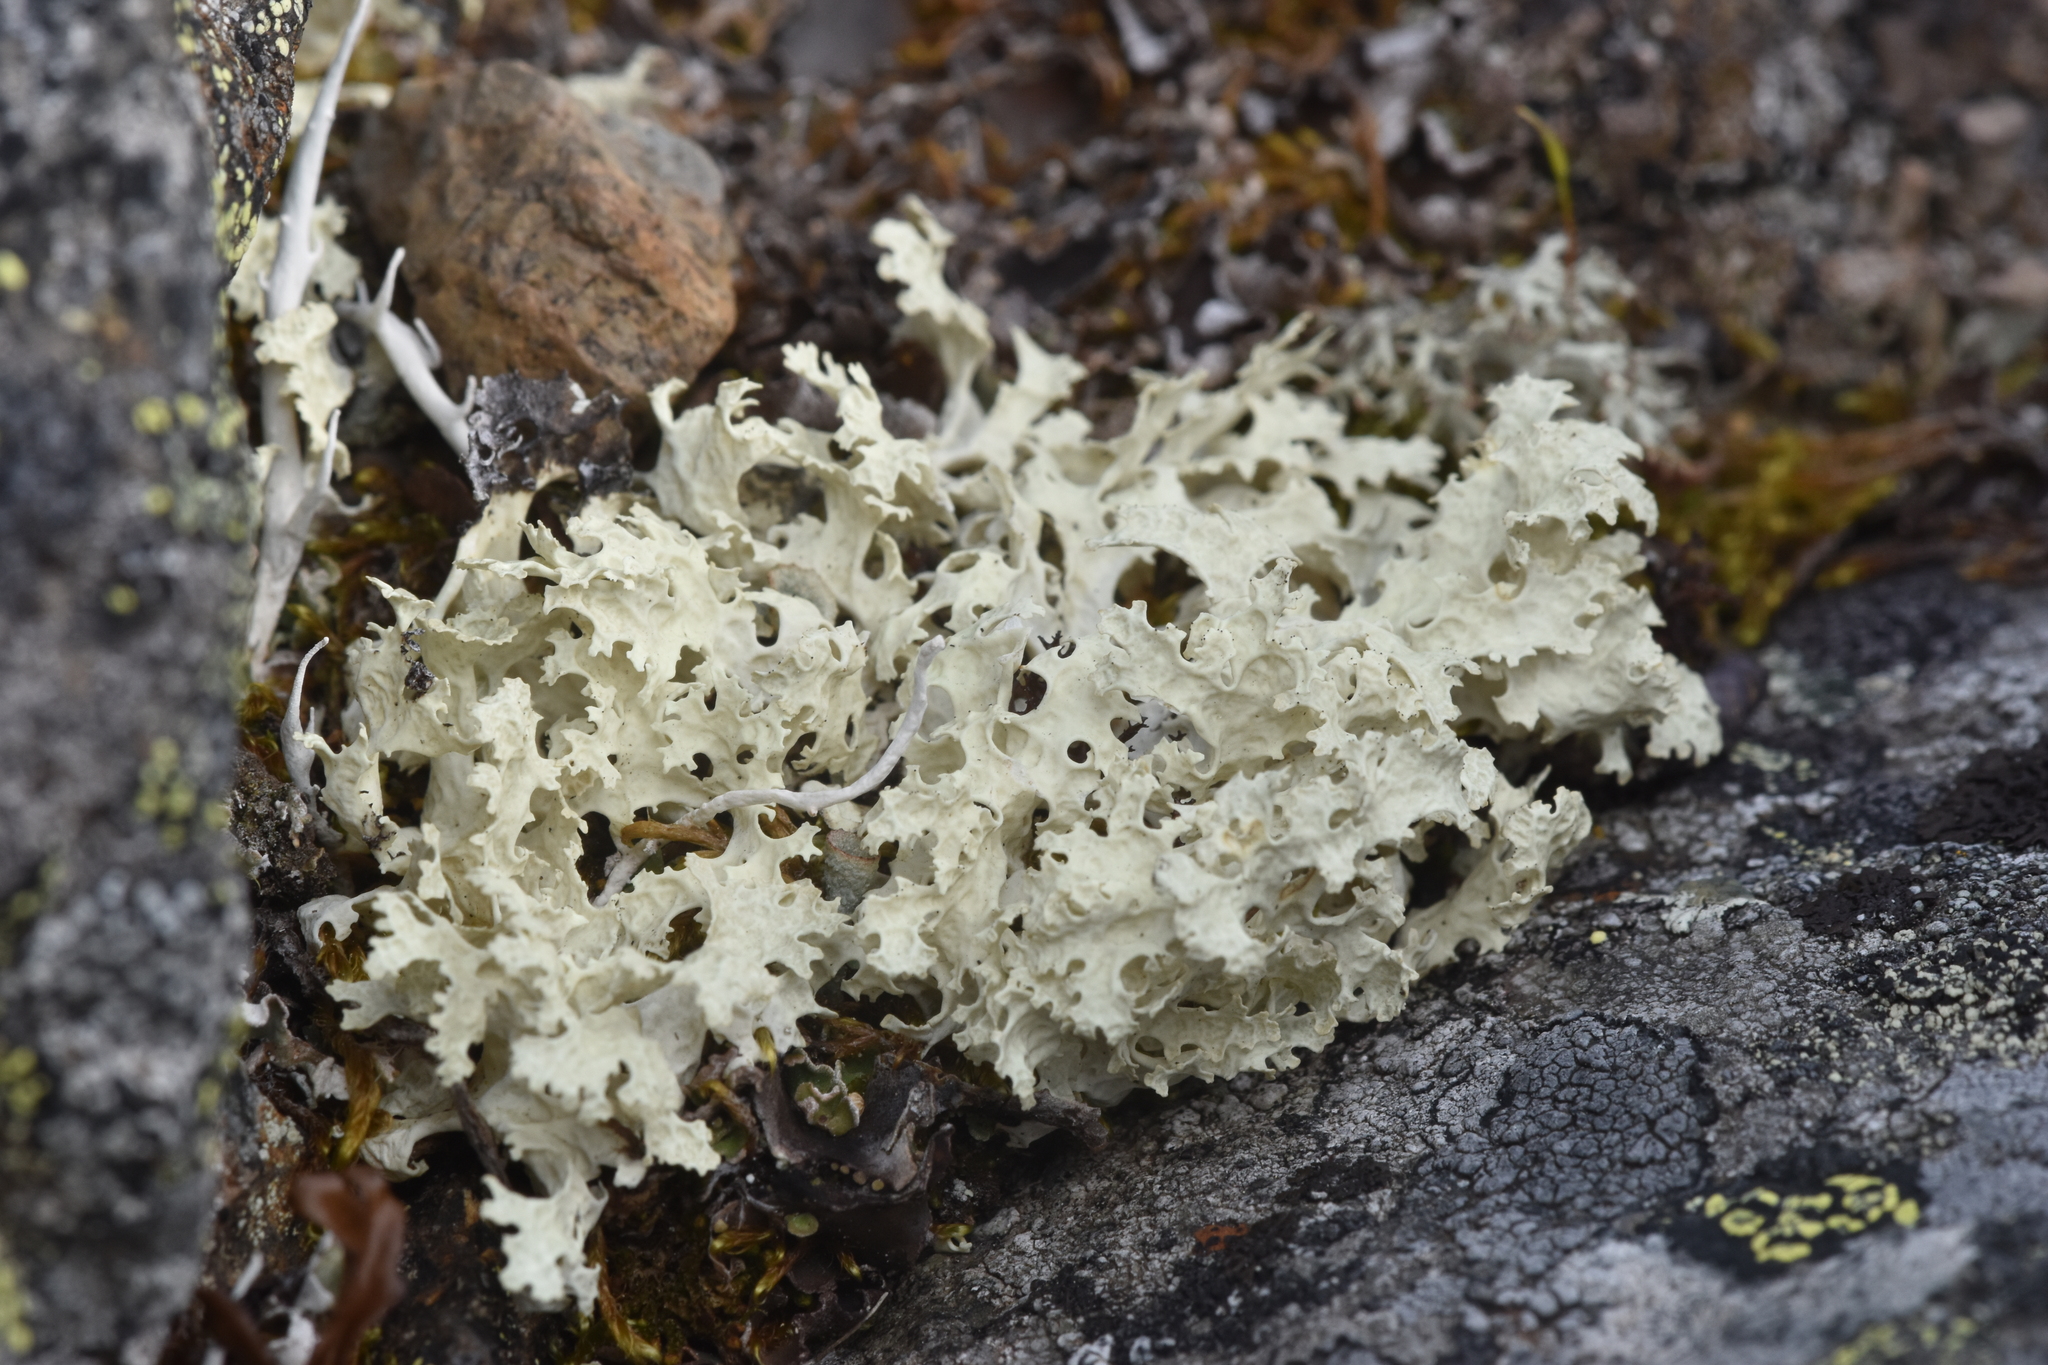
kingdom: Fungi
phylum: Ascomycota
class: Lecanoromycetes
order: Lecanorales
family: Parmeliaceae
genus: Nephromopsis
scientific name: Nephromopsis nivalis
